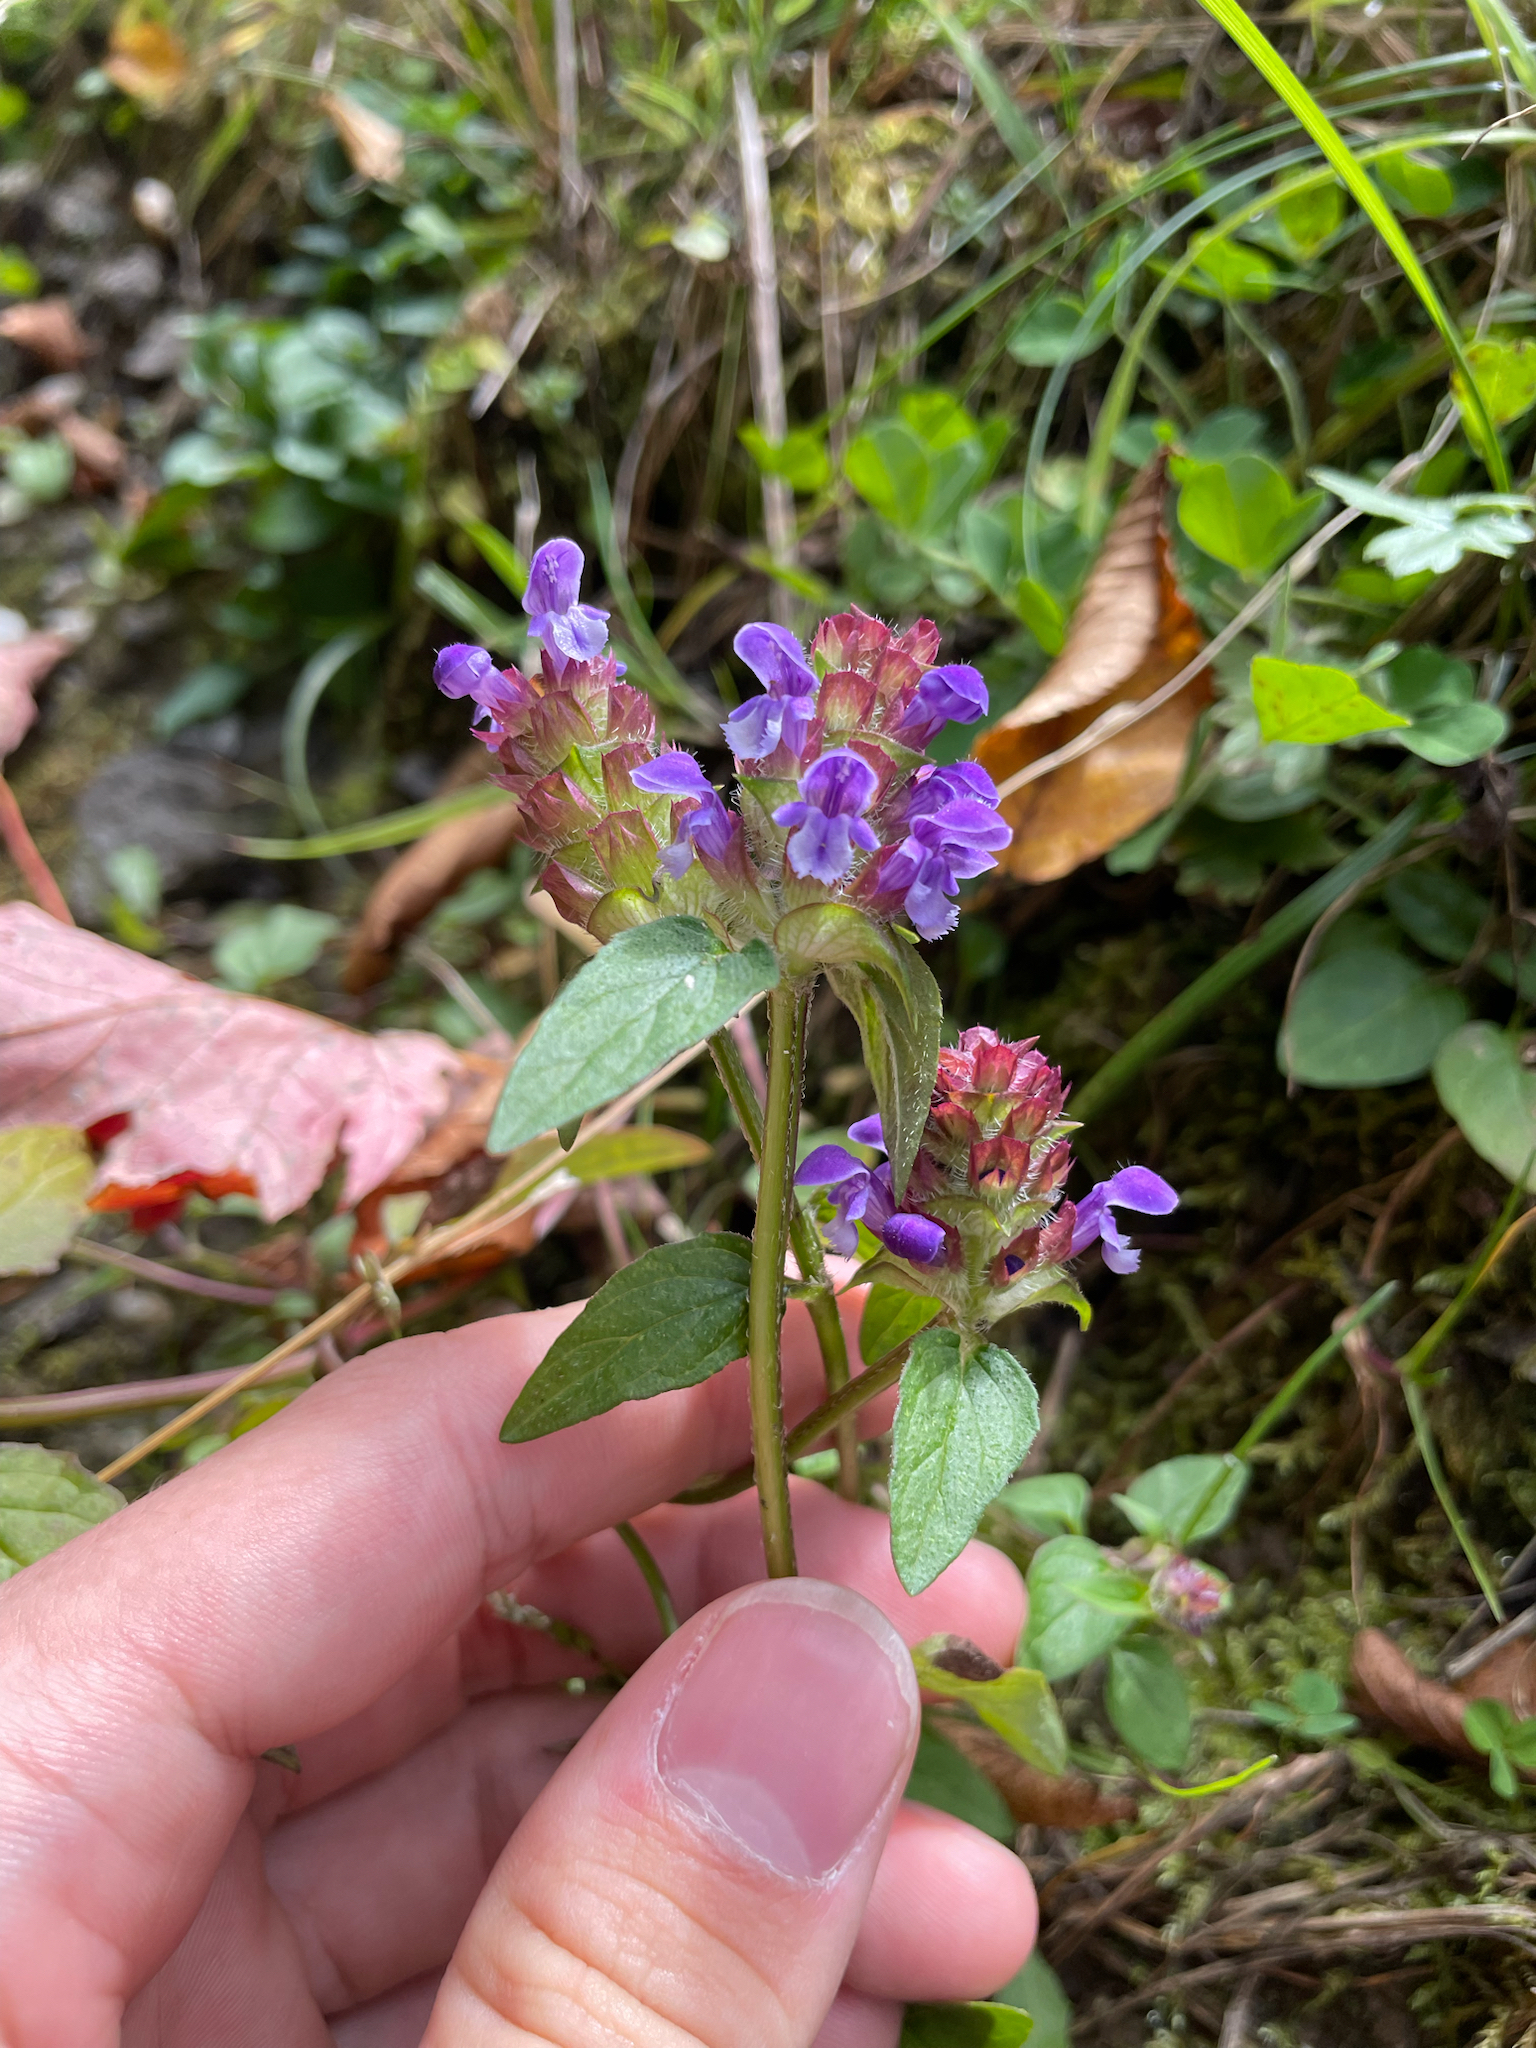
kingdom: Plantae
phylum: Tracheophyta
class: Magnoliopsida
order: Lamiales
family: Lamiaceae
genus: Prunella
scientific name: Prunella vulgaris
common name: Heal-all
